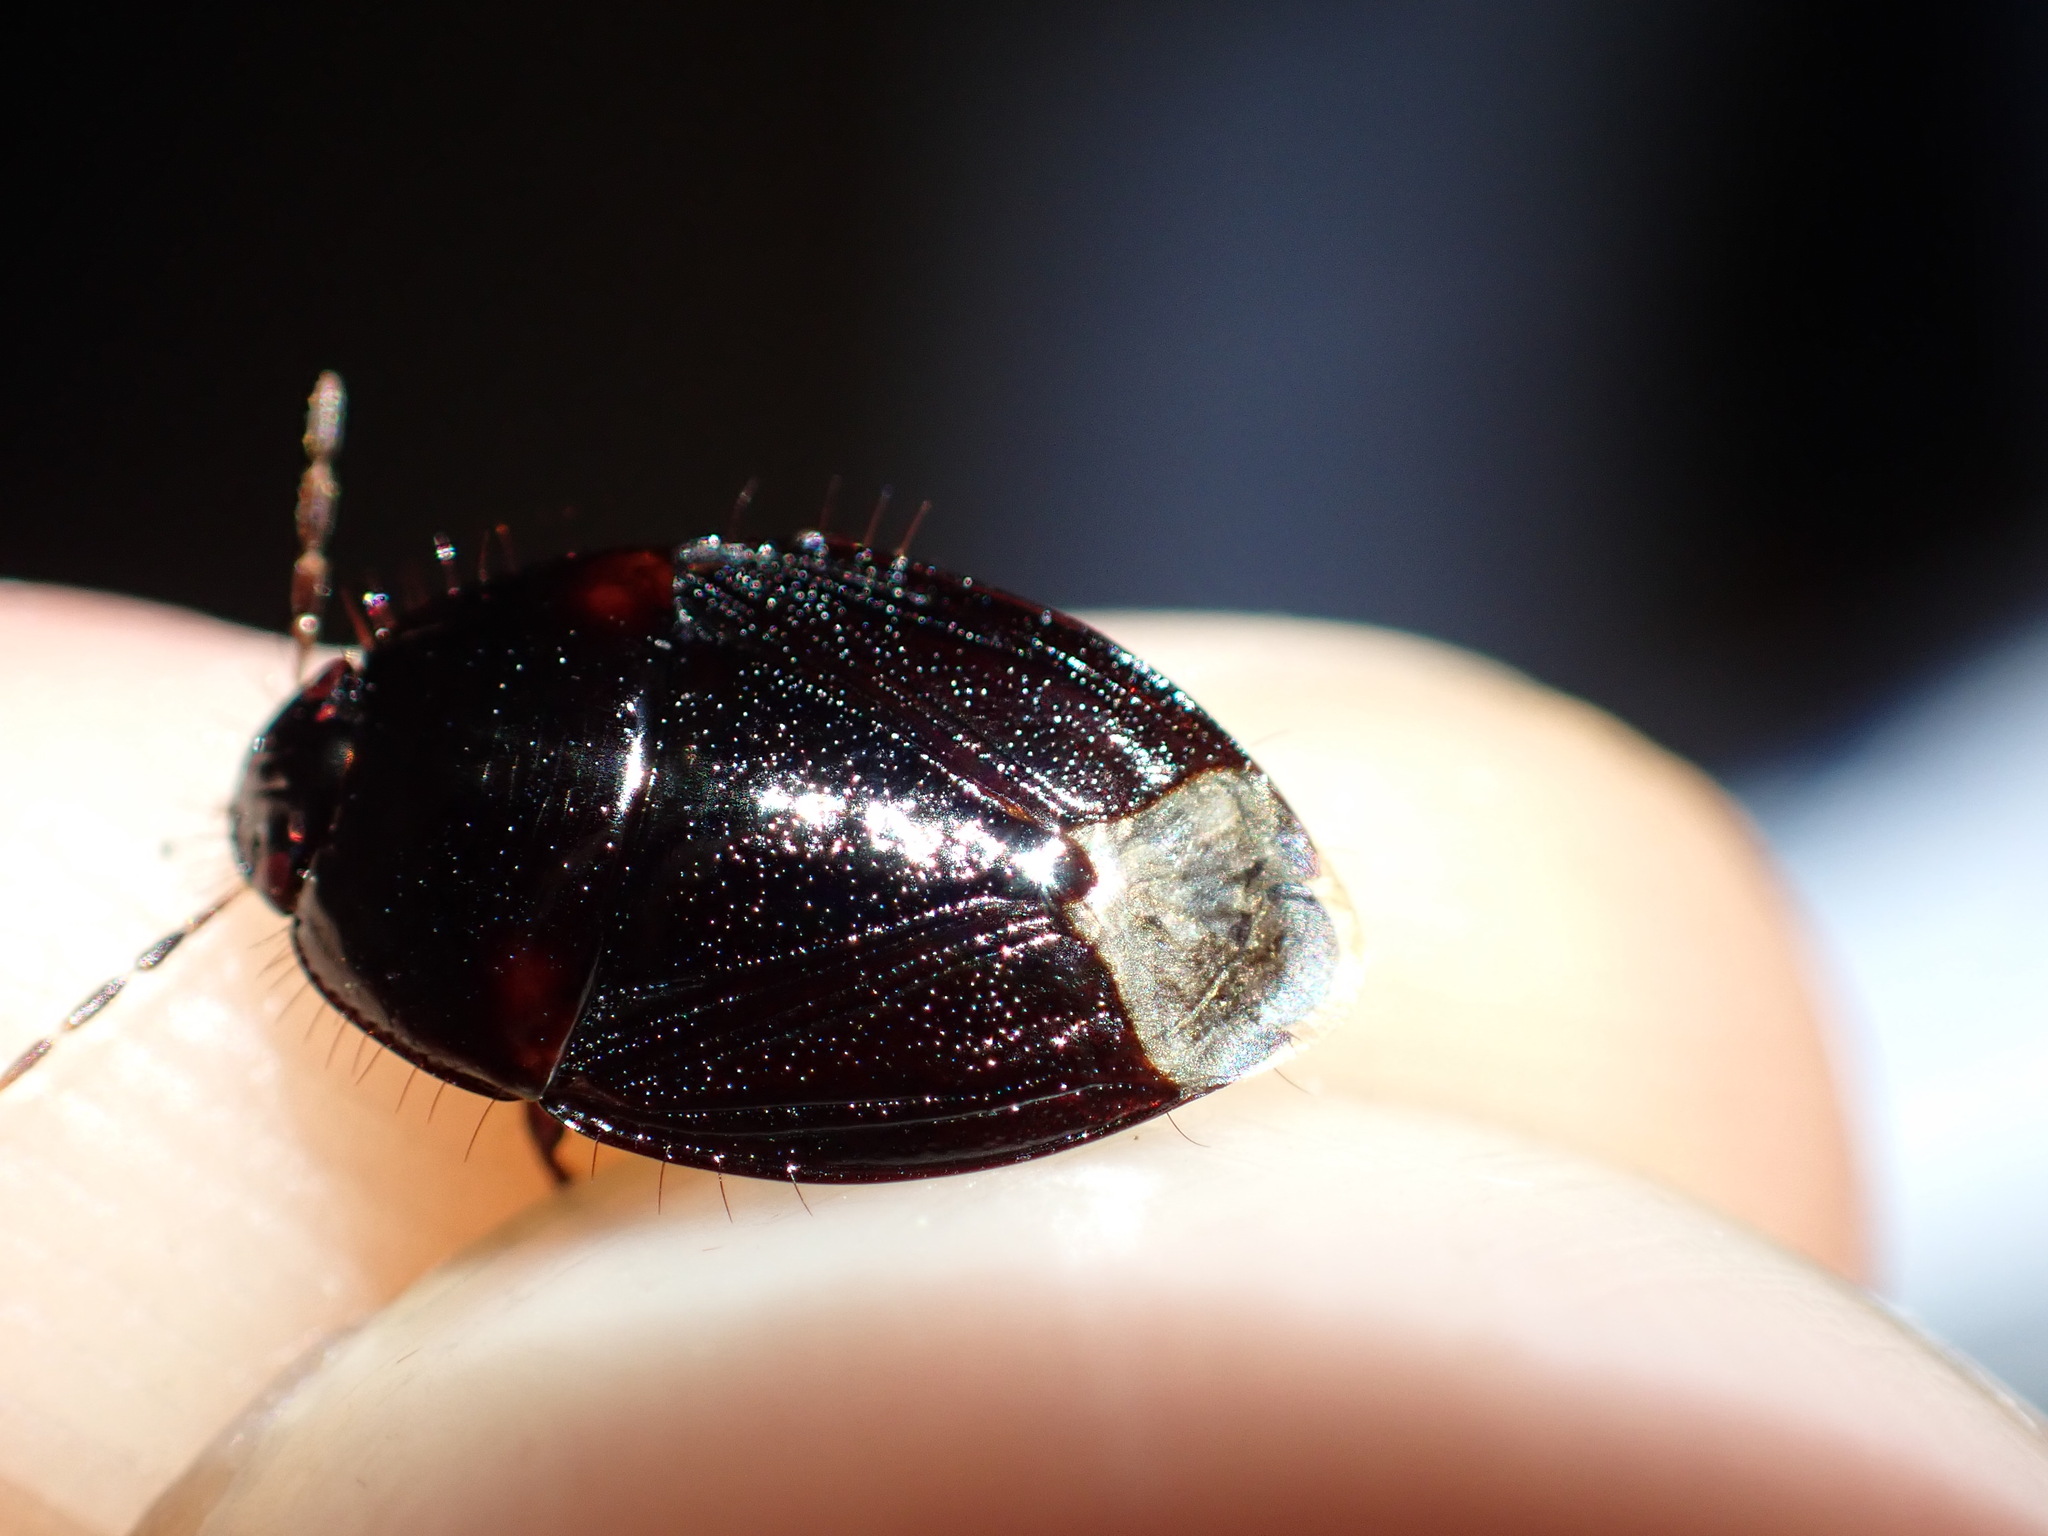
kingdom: Animalia
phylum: Arthropoda
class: Insecta
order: Hemiptera
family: Cydnidae
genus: Macroscytus
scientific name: Macroscytus brunneus
